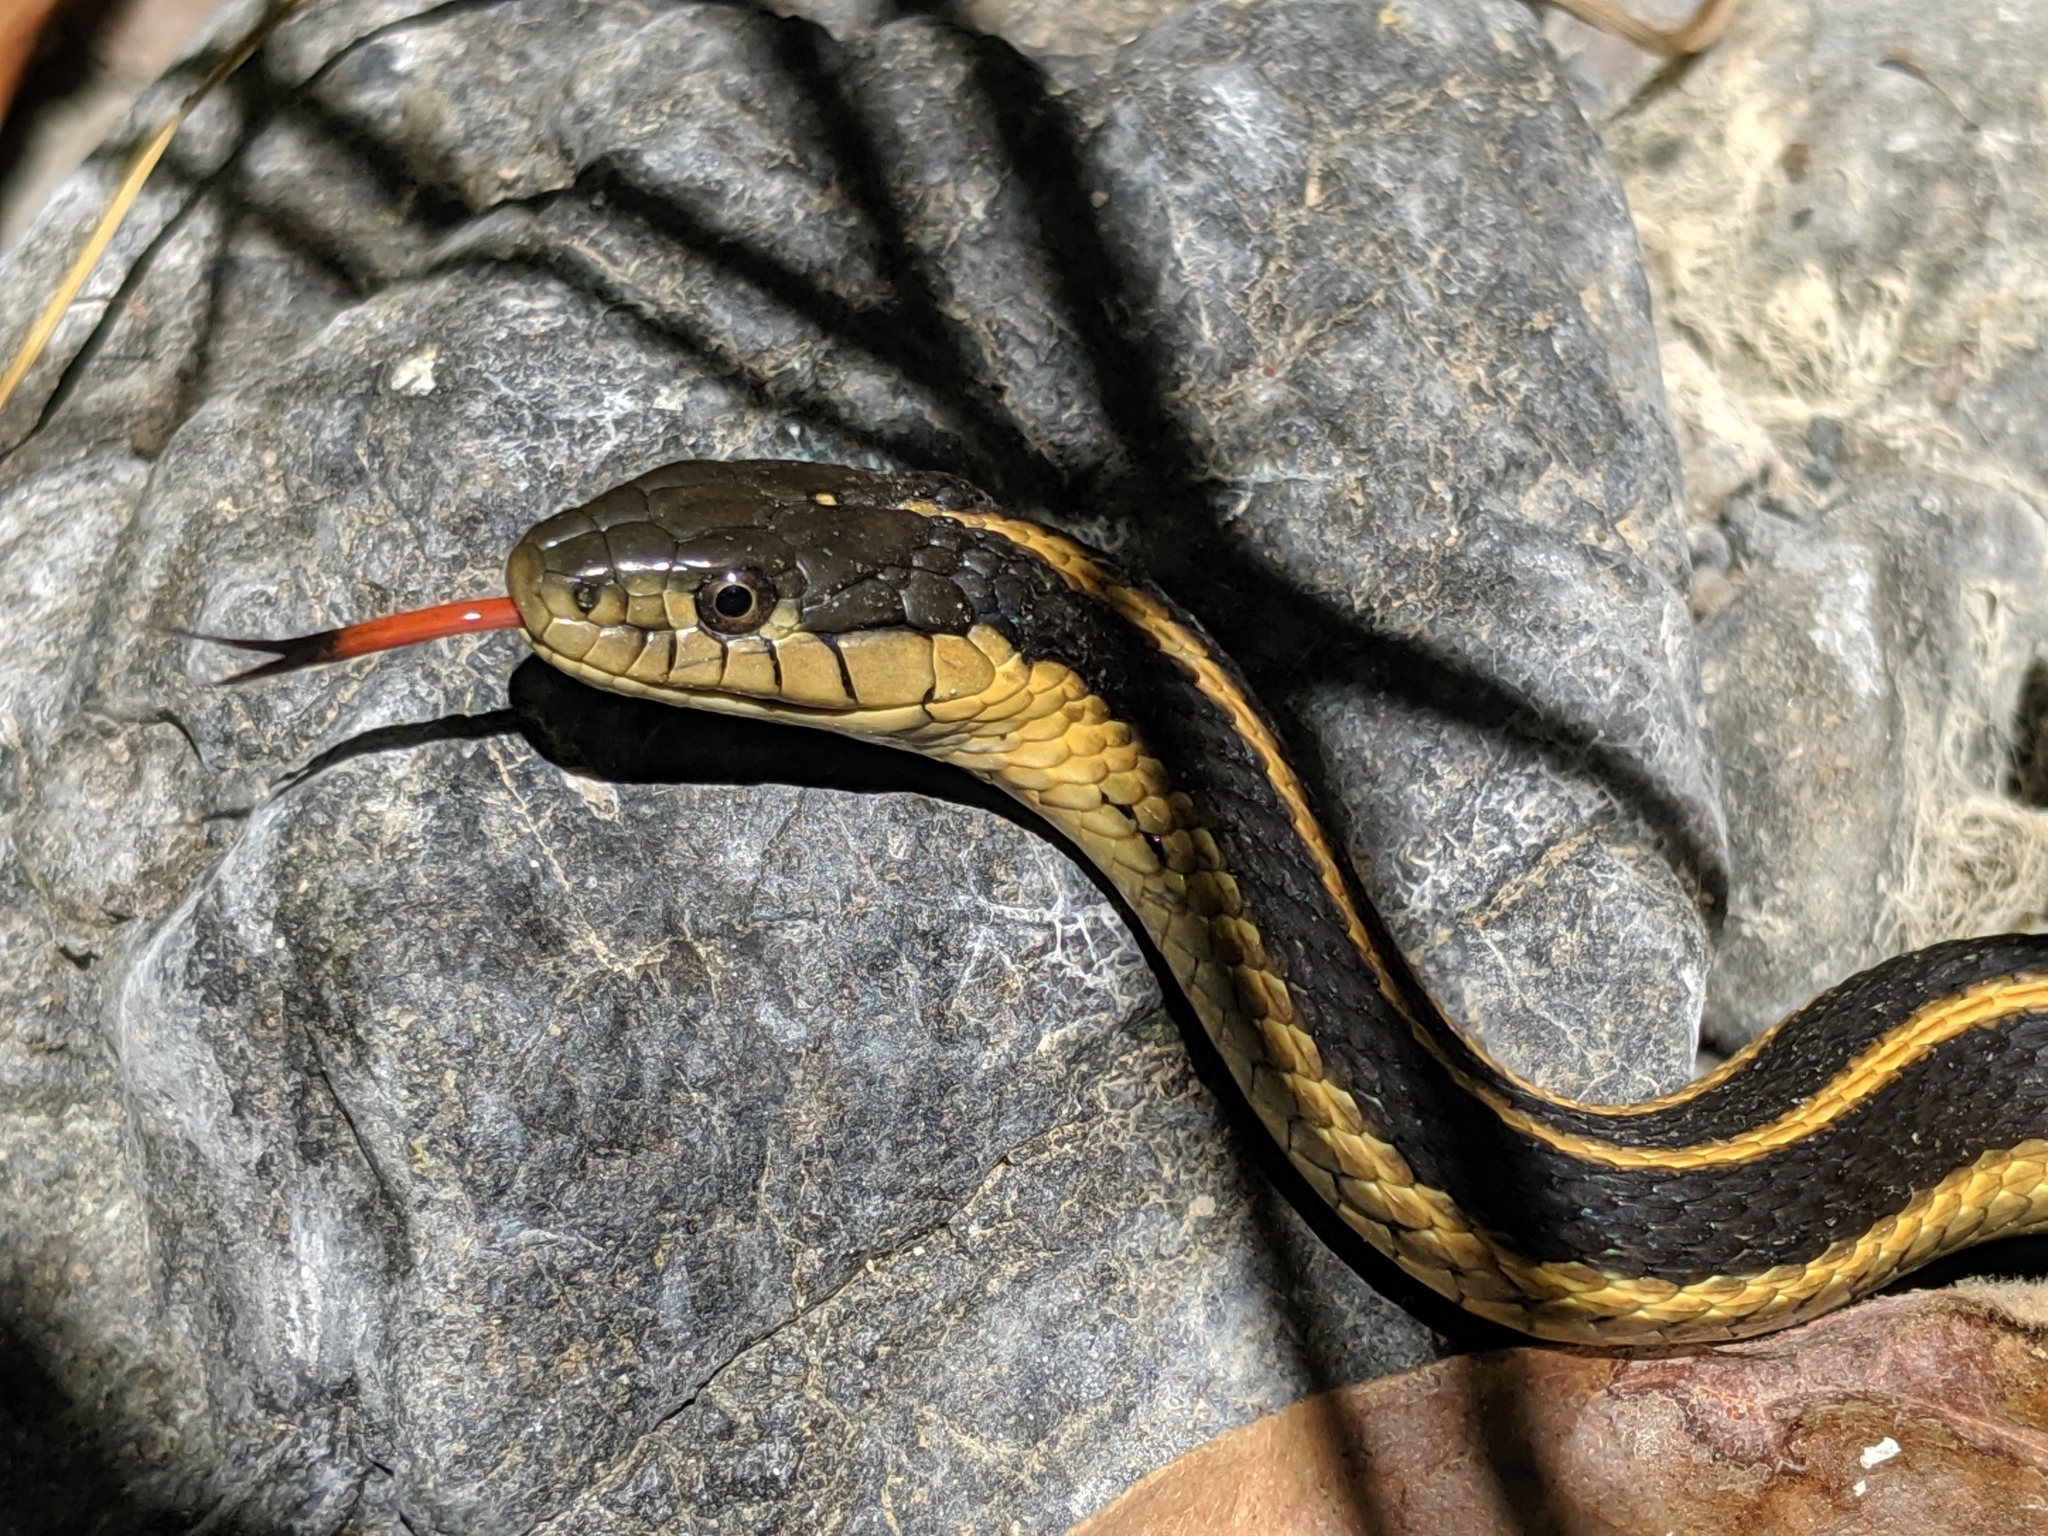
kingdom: Animalia
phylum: Chordata
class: Squamata
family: Colubridae
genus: Thamnophis
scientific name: Thamnophis atratus
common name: Pacific coast aquatic garter snake
